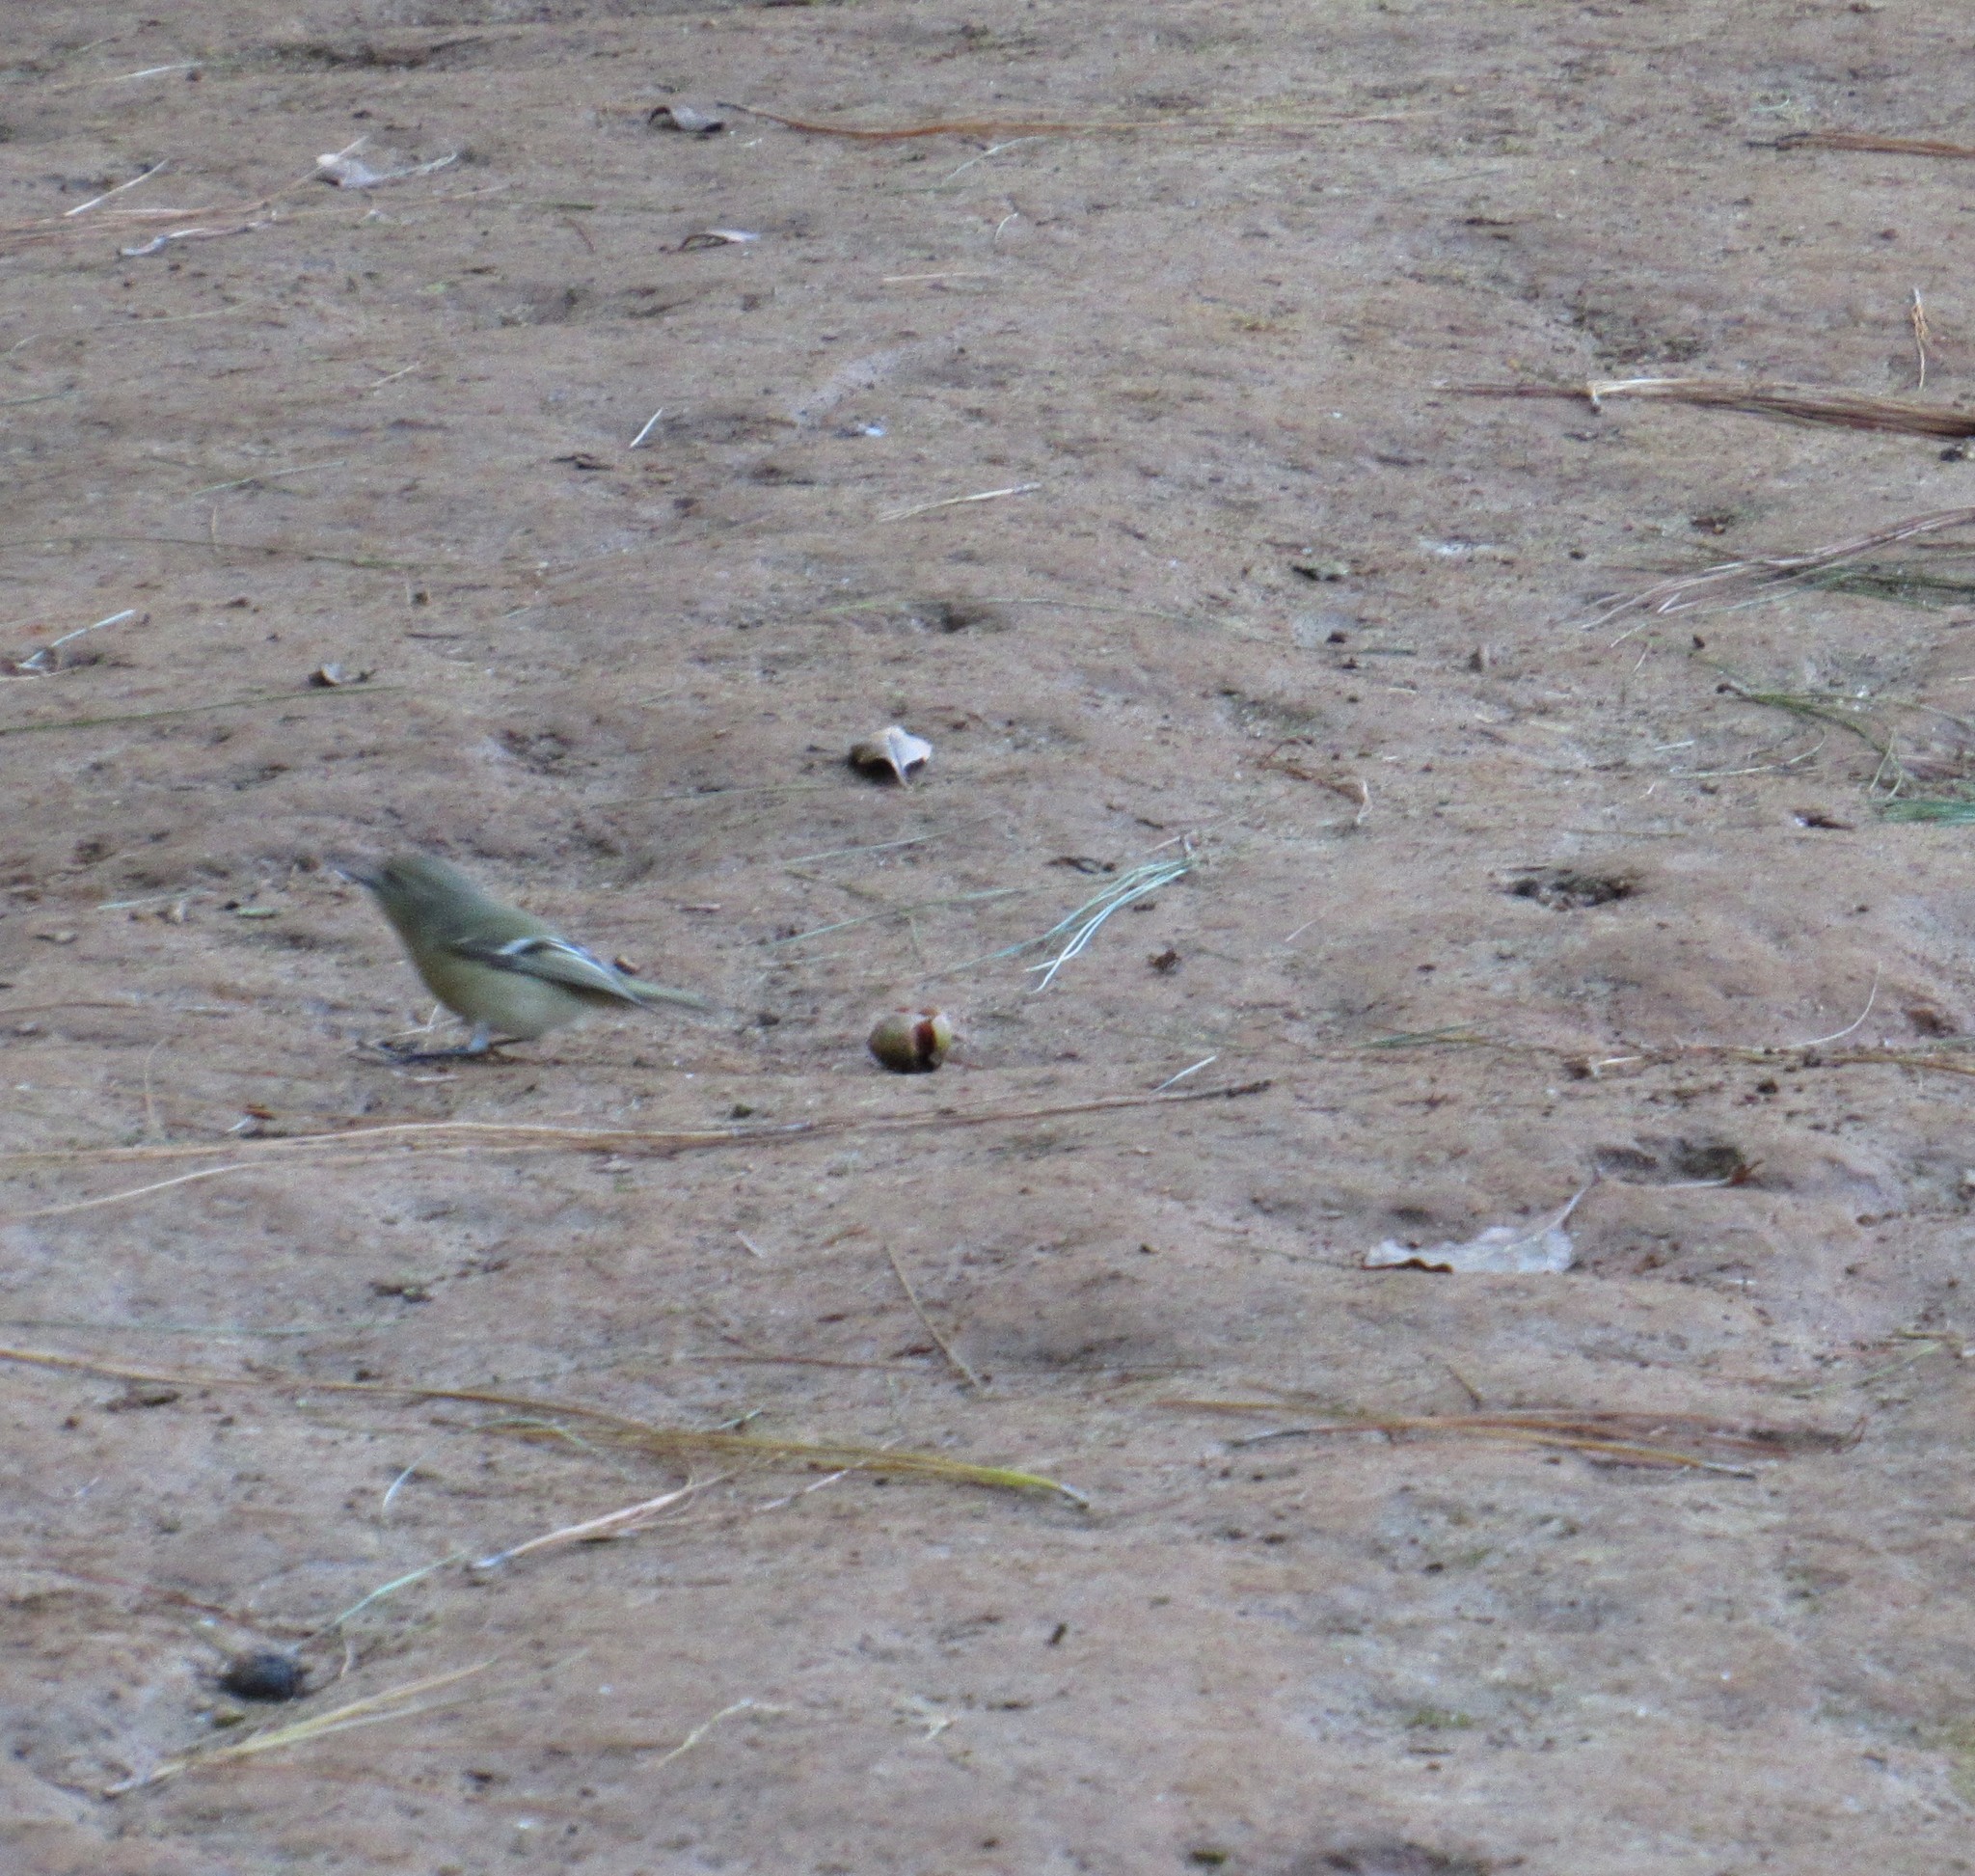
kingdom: Animalia
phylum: Chordata
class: Aves
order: Passeriformes
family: Regulidae
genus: Regulus
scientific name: Regulus calendula
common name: Ruby-crowned kinglet
